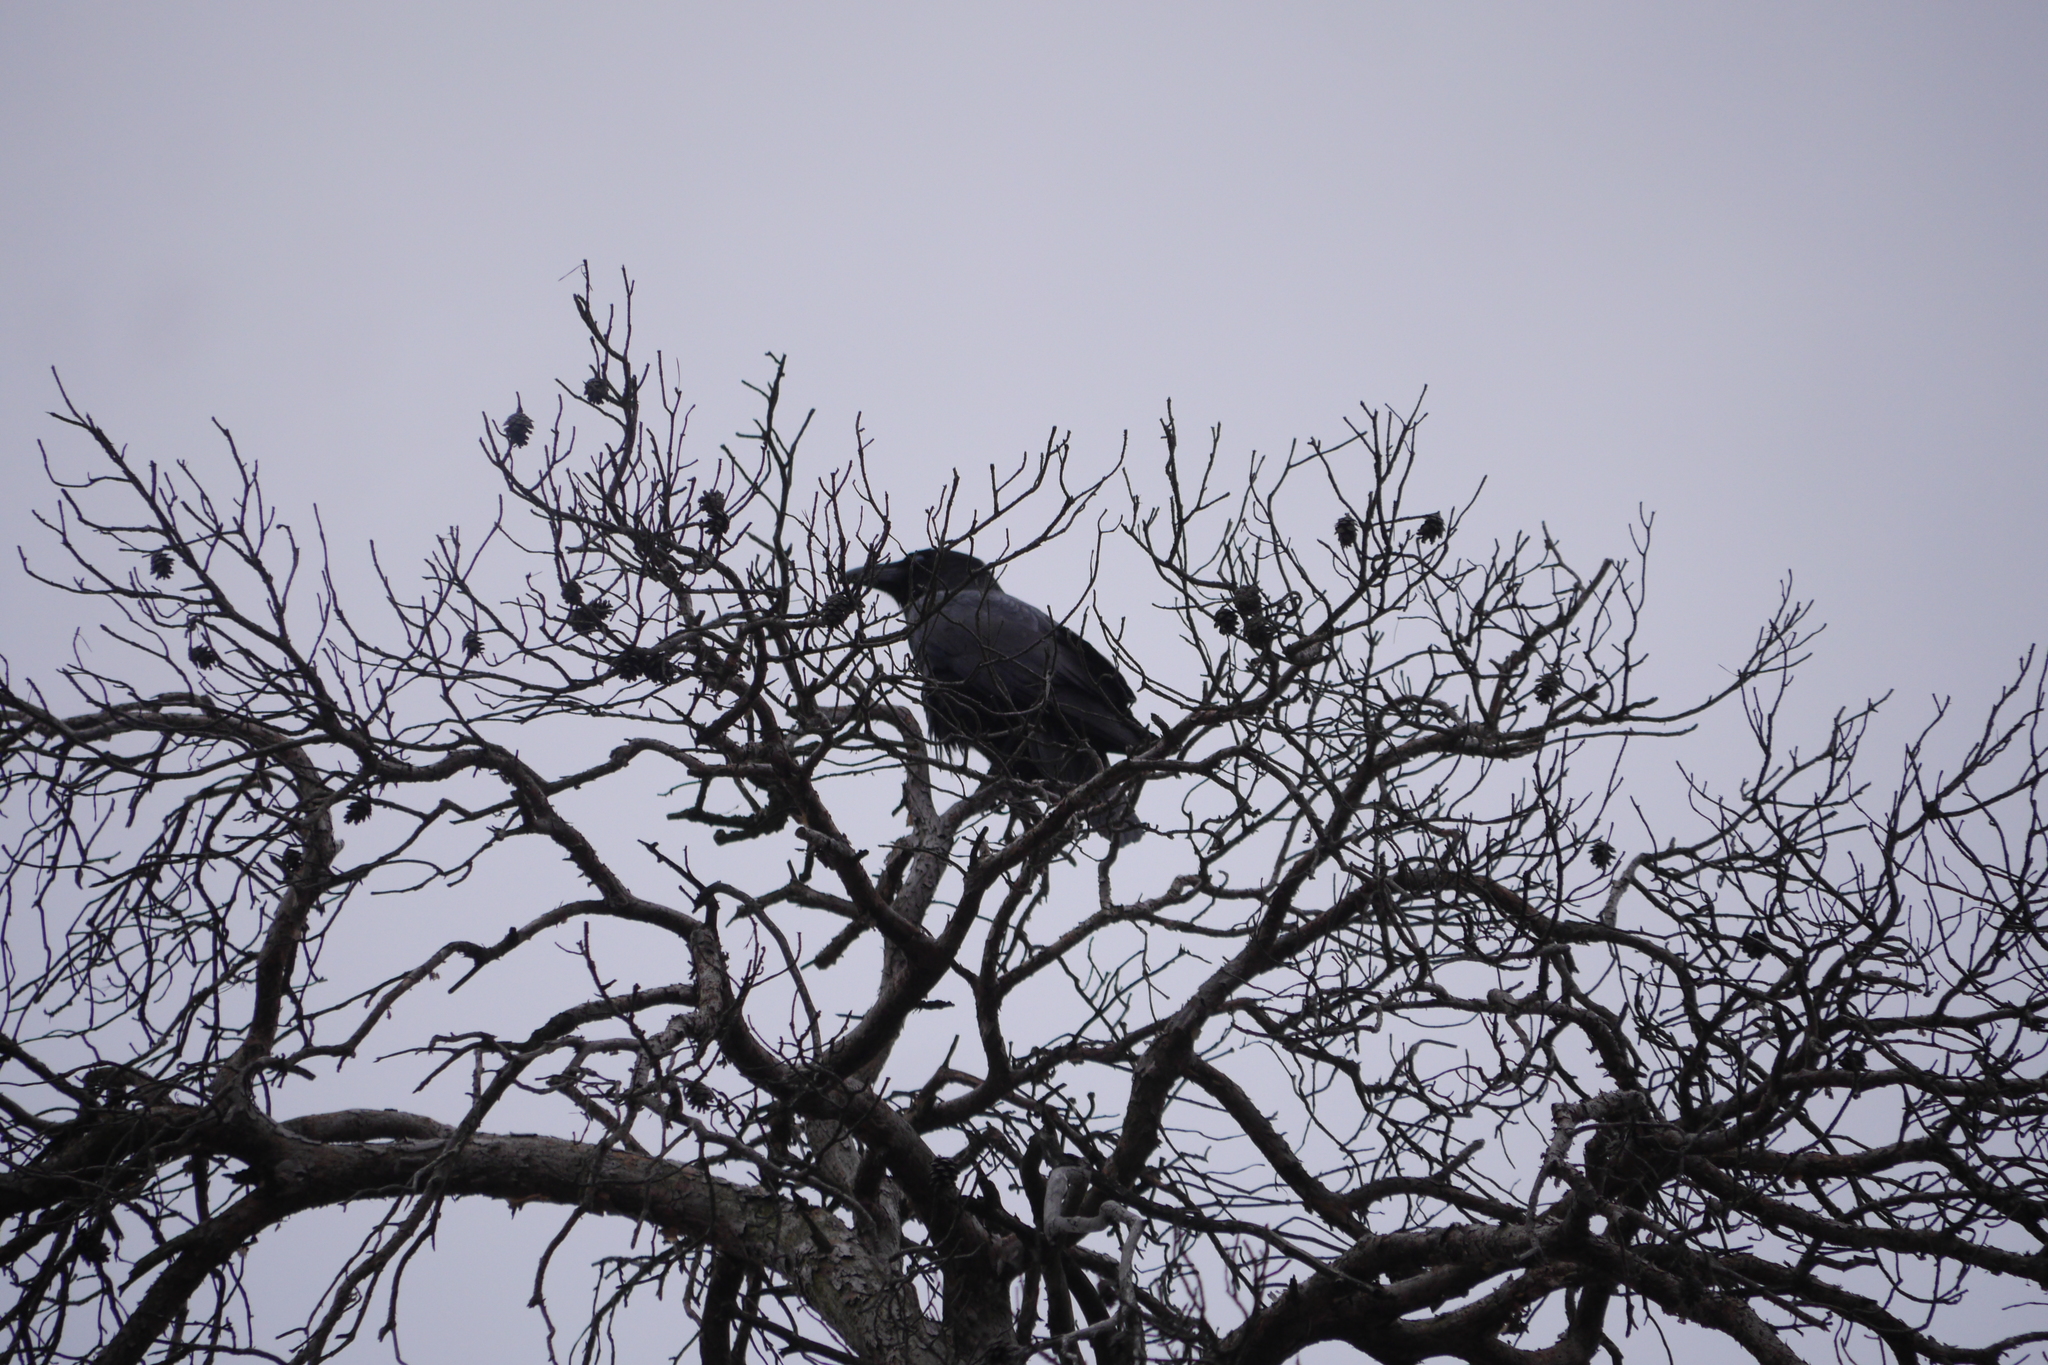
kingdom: Animalia
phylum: Chordata
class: Aves
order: Passeriformes
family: Corvidae
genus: Corvus
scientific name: Corvus corone
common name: Carrion crow
